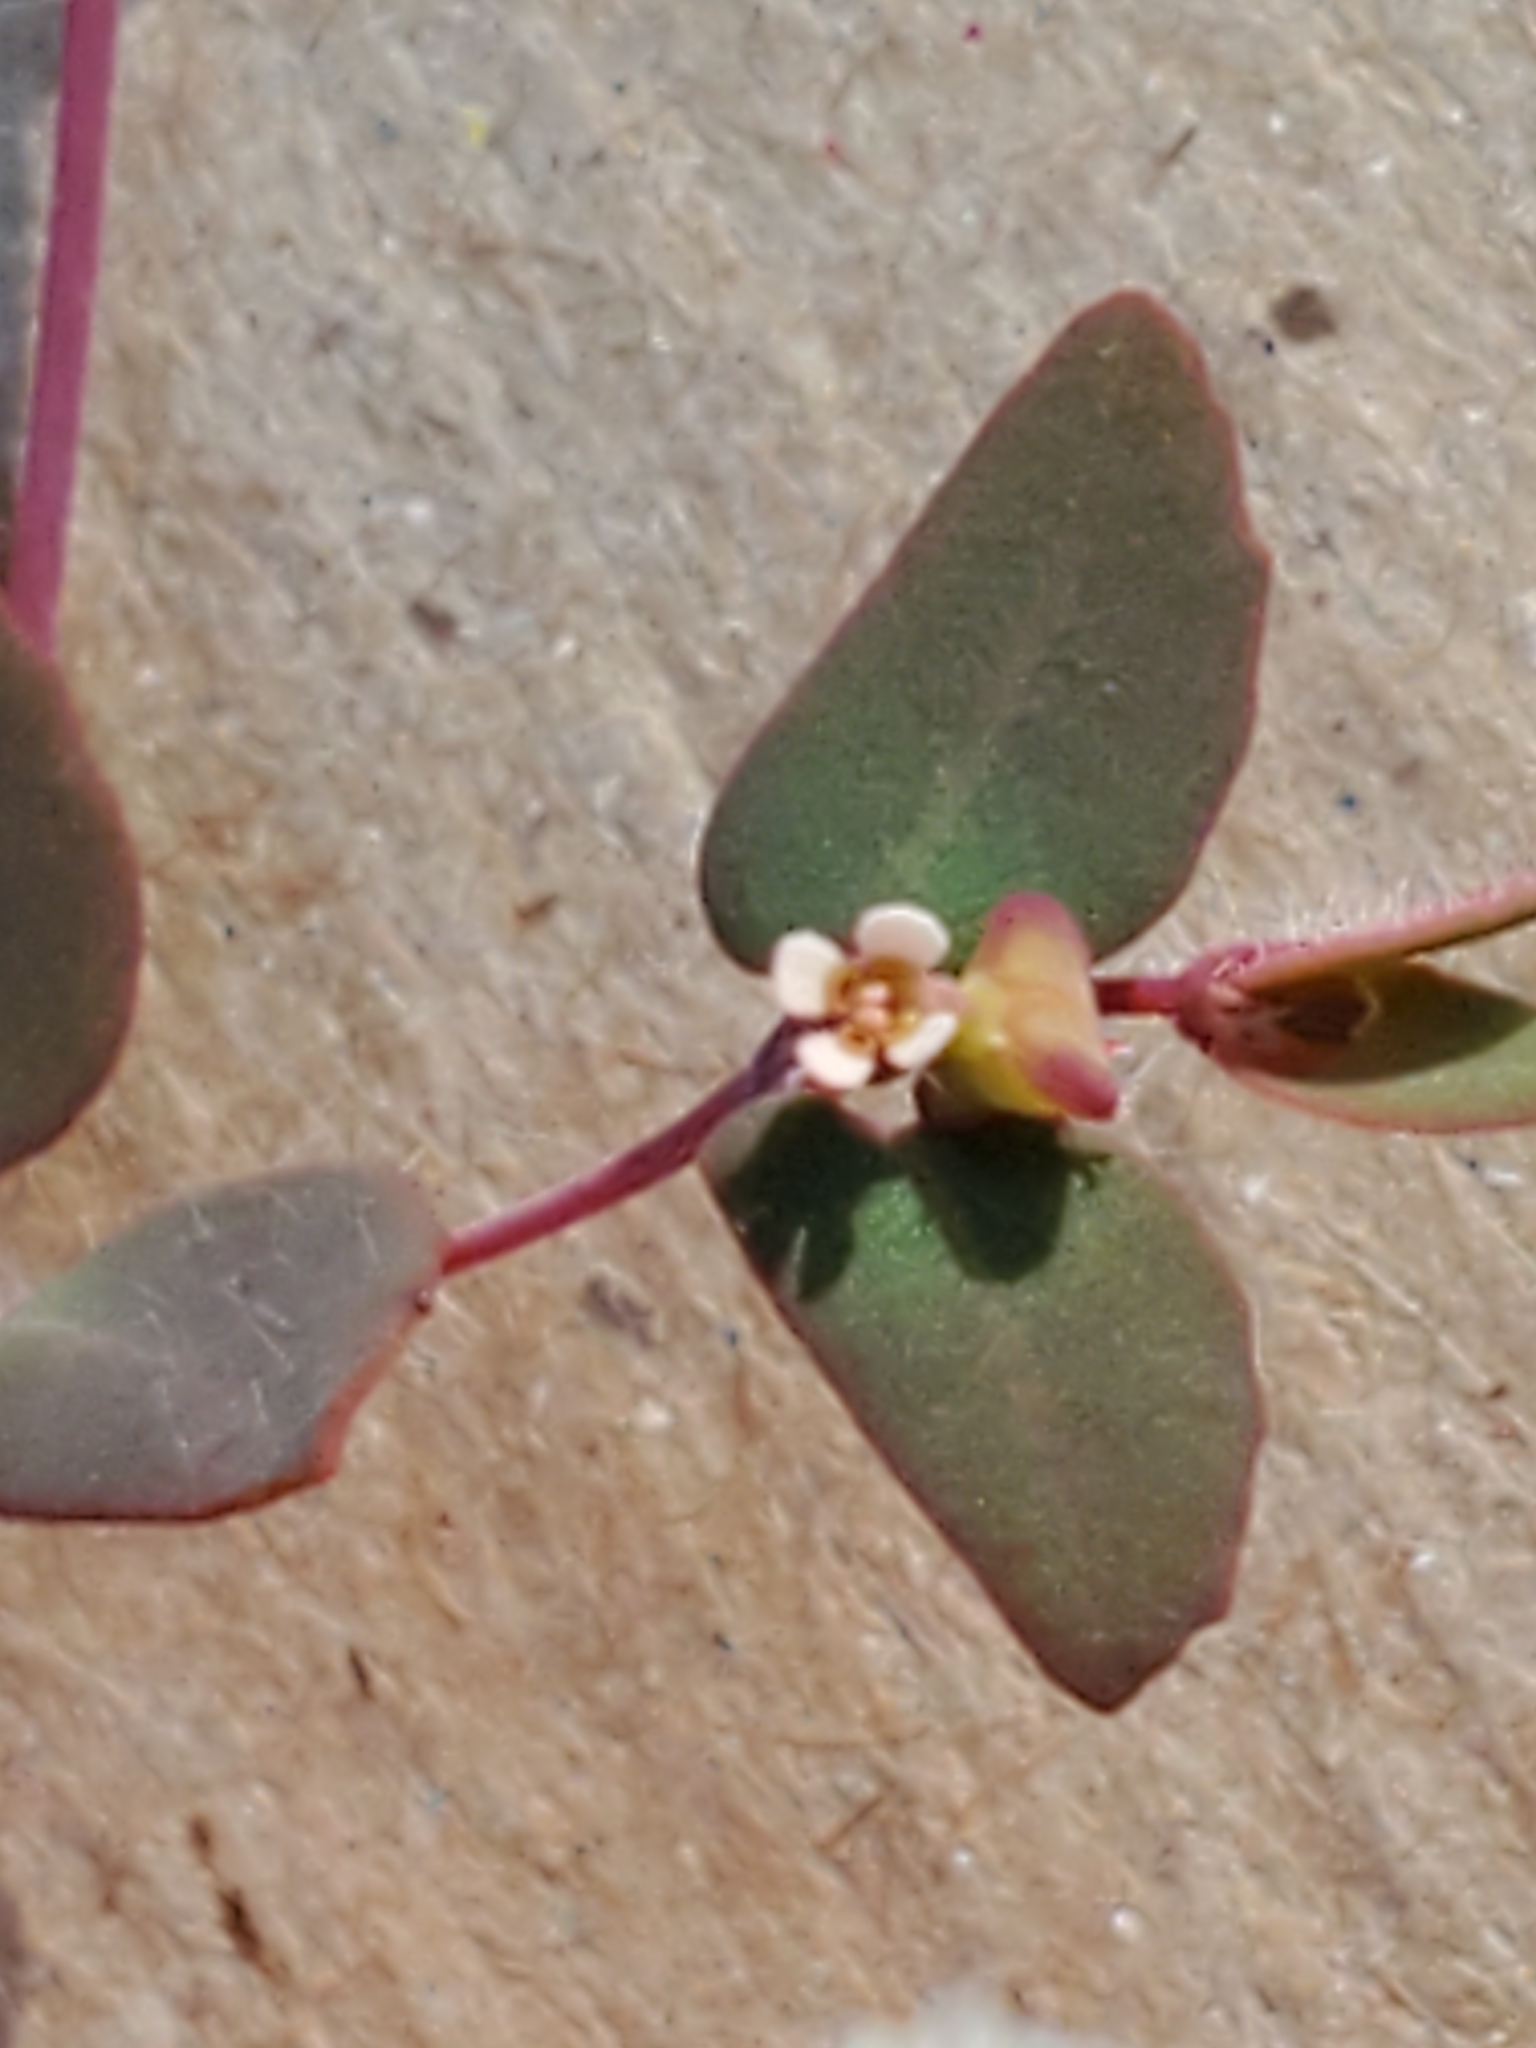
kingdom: Plantae
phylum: Tracheophyta
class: Magnoliopsida
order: Malpighiales
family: Euphorbiaceae
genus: Euphorbia
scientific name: Euphorbia villifera
